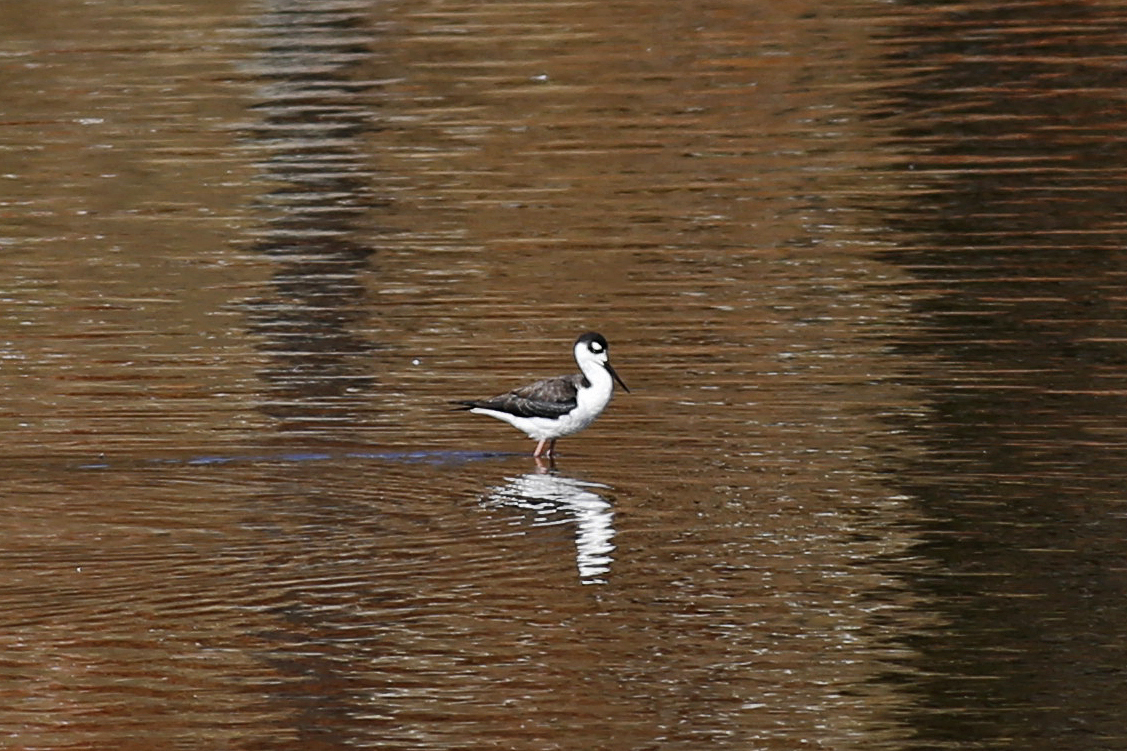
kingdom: Animalia
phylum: Chordata
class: Aves
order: Charadriiformes
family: Recurvirostridae
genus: Himantopus
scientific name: Himantopus mexicanus
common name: Black-necked stilt
